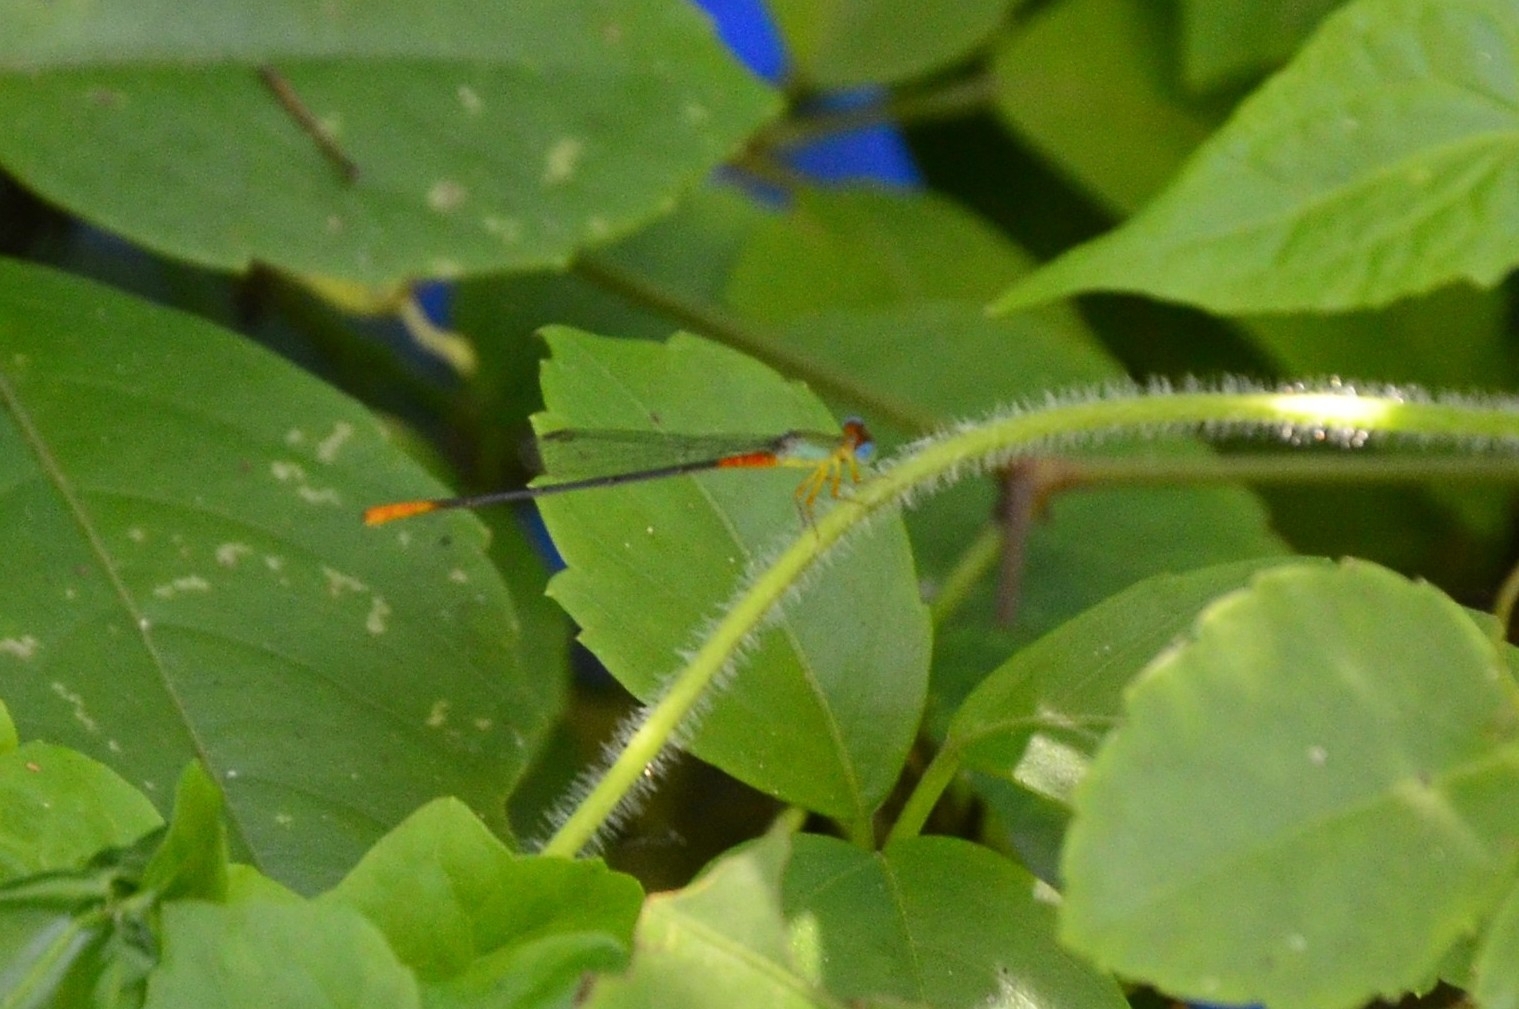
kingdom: Animalia
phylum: Arthropoda
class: Insecta
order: Odonata
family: Coenagrionidae
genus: Ceriagrion
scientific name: Ceriagrion cerinorubellum
